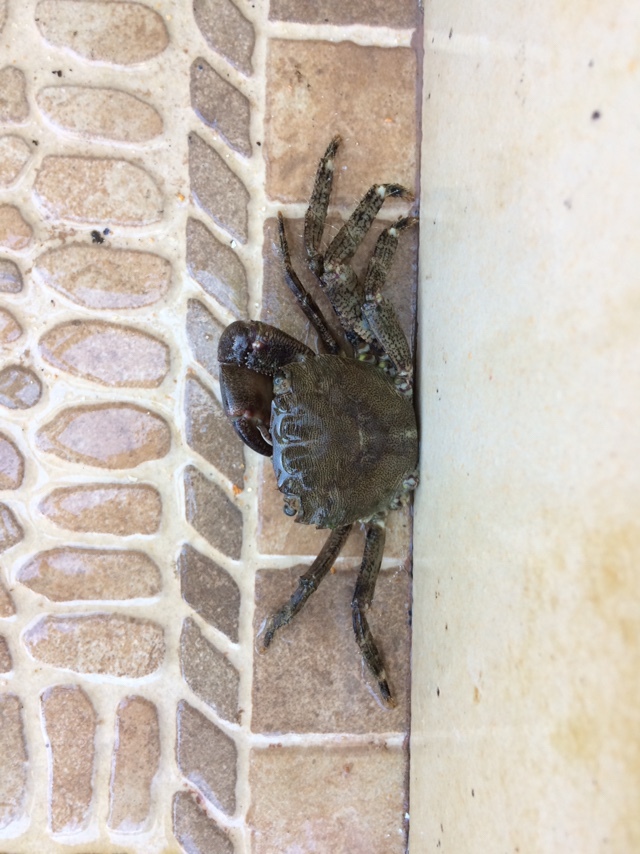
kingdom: Animalia
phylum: Arthropoda
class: Malacostraca
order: Decapoda
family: Grapsidae
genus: Pachygrapsus
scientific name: Pachygrapsus marmoratus
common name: Marbled rock crab
